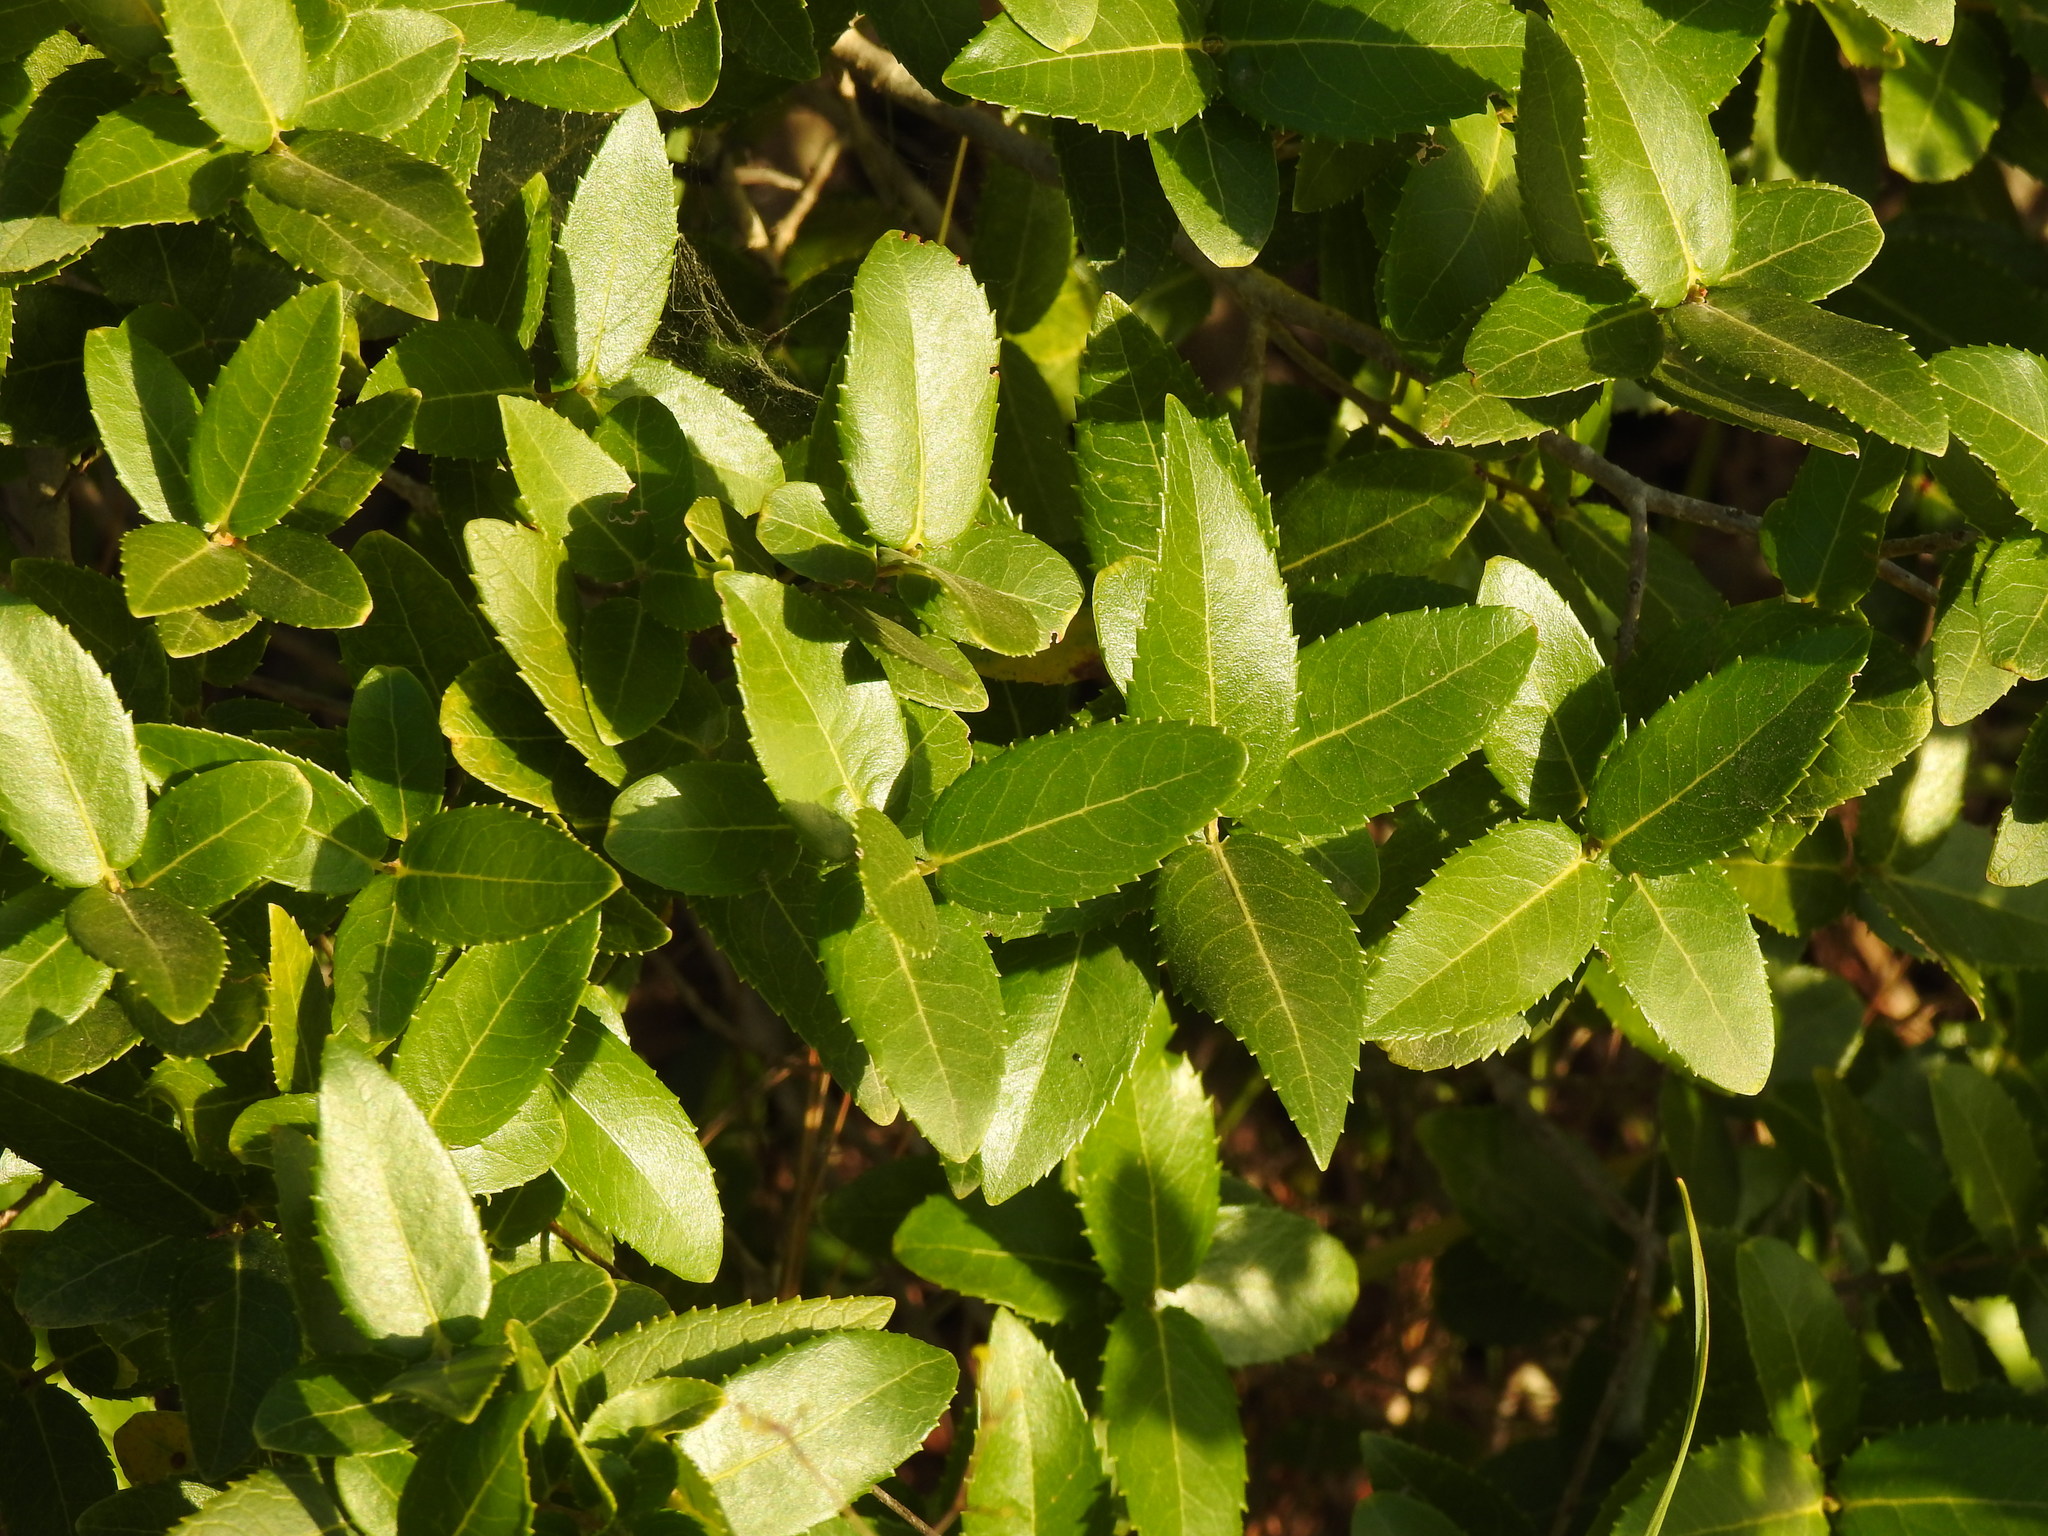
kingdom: Plantae
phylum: Tracheophyta
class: Magnoliopsida
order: Lamiales
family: Oleaceae
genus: Phillyrea
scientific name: Phillyrea latifolia
